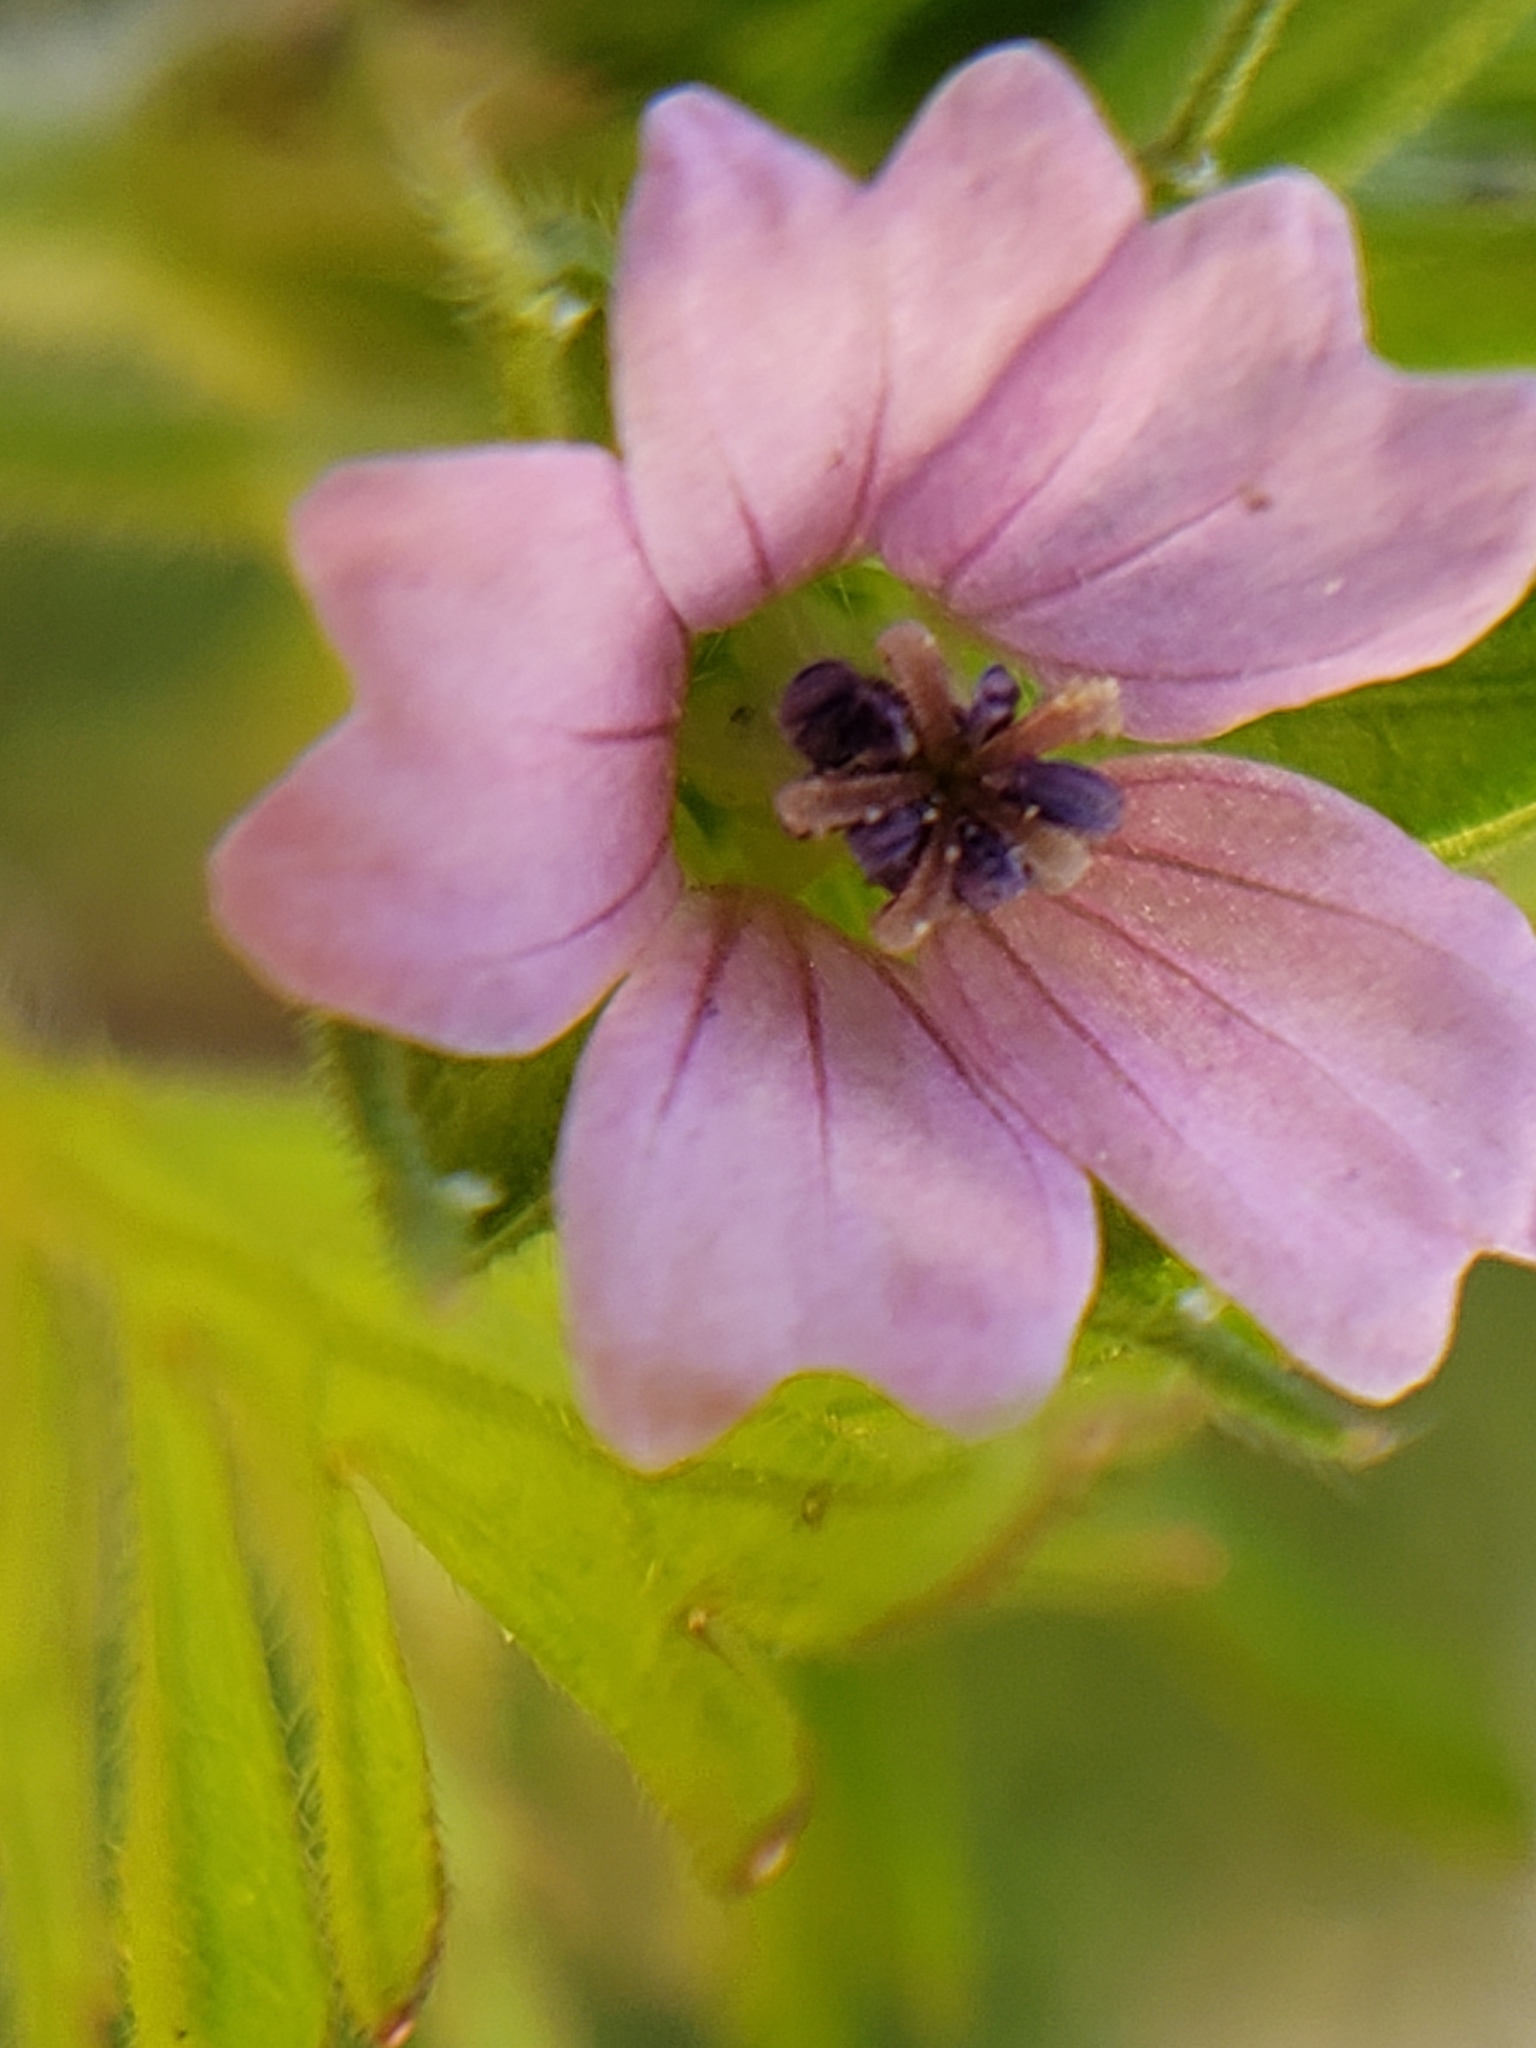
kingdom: Plantae
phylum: Tracheophyta
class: Magnoliopsida
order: Geraniales
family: Geraniaceae
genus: Geranium
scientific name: Geranium dissectum
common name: Cut-leaved crane's-bill
